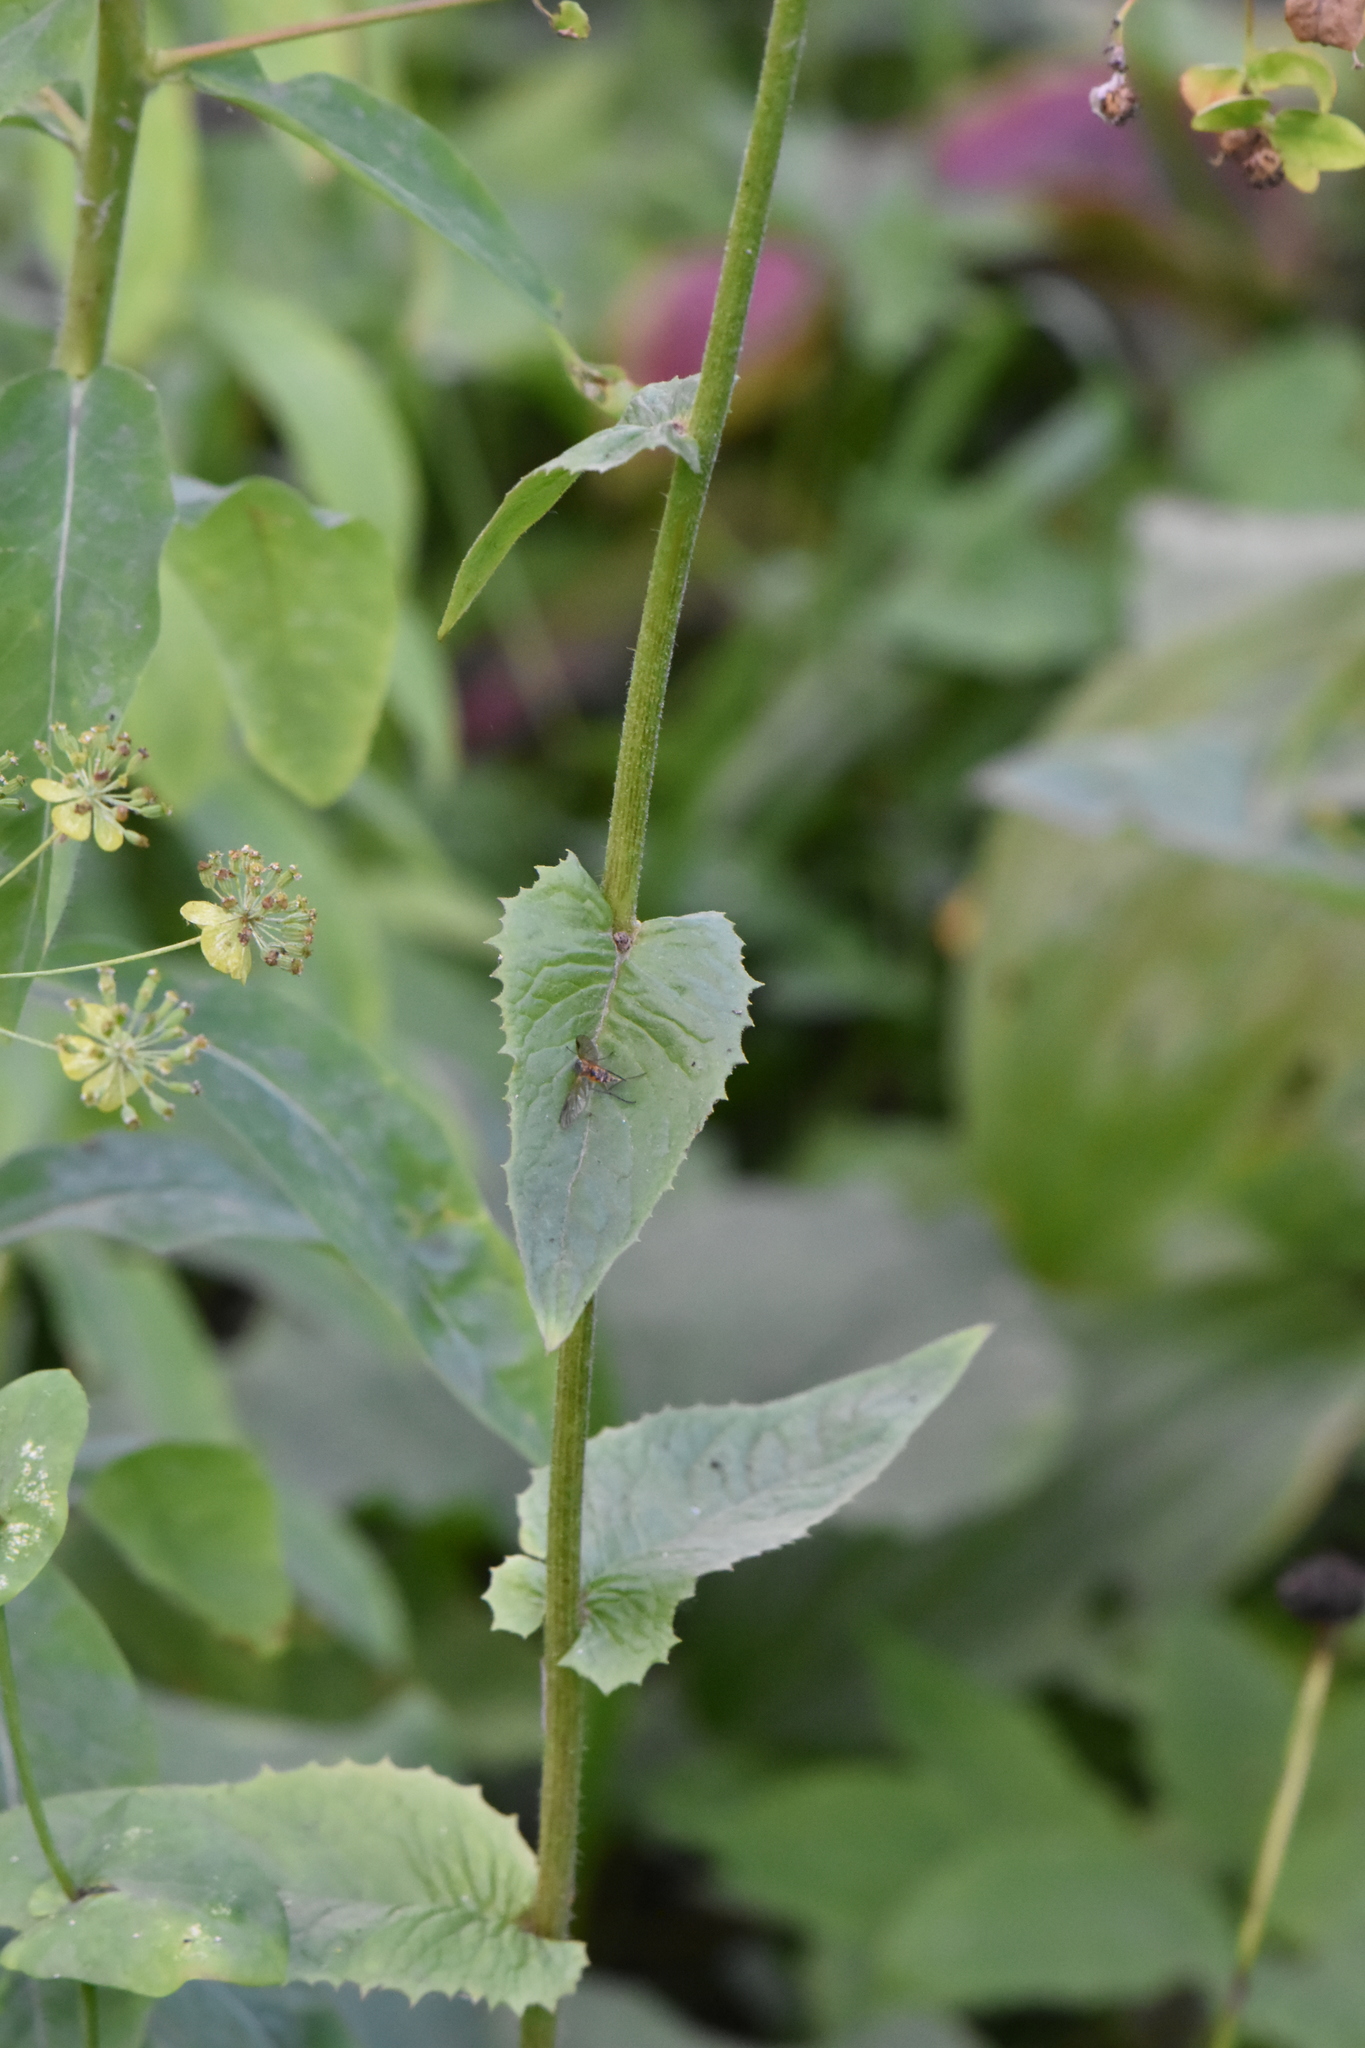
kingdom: Plantae
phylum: Tracheophyta
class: Magnoliopsida
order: Asterales
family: Asteraceae
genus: Crepis
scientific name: Crepis sibirica
